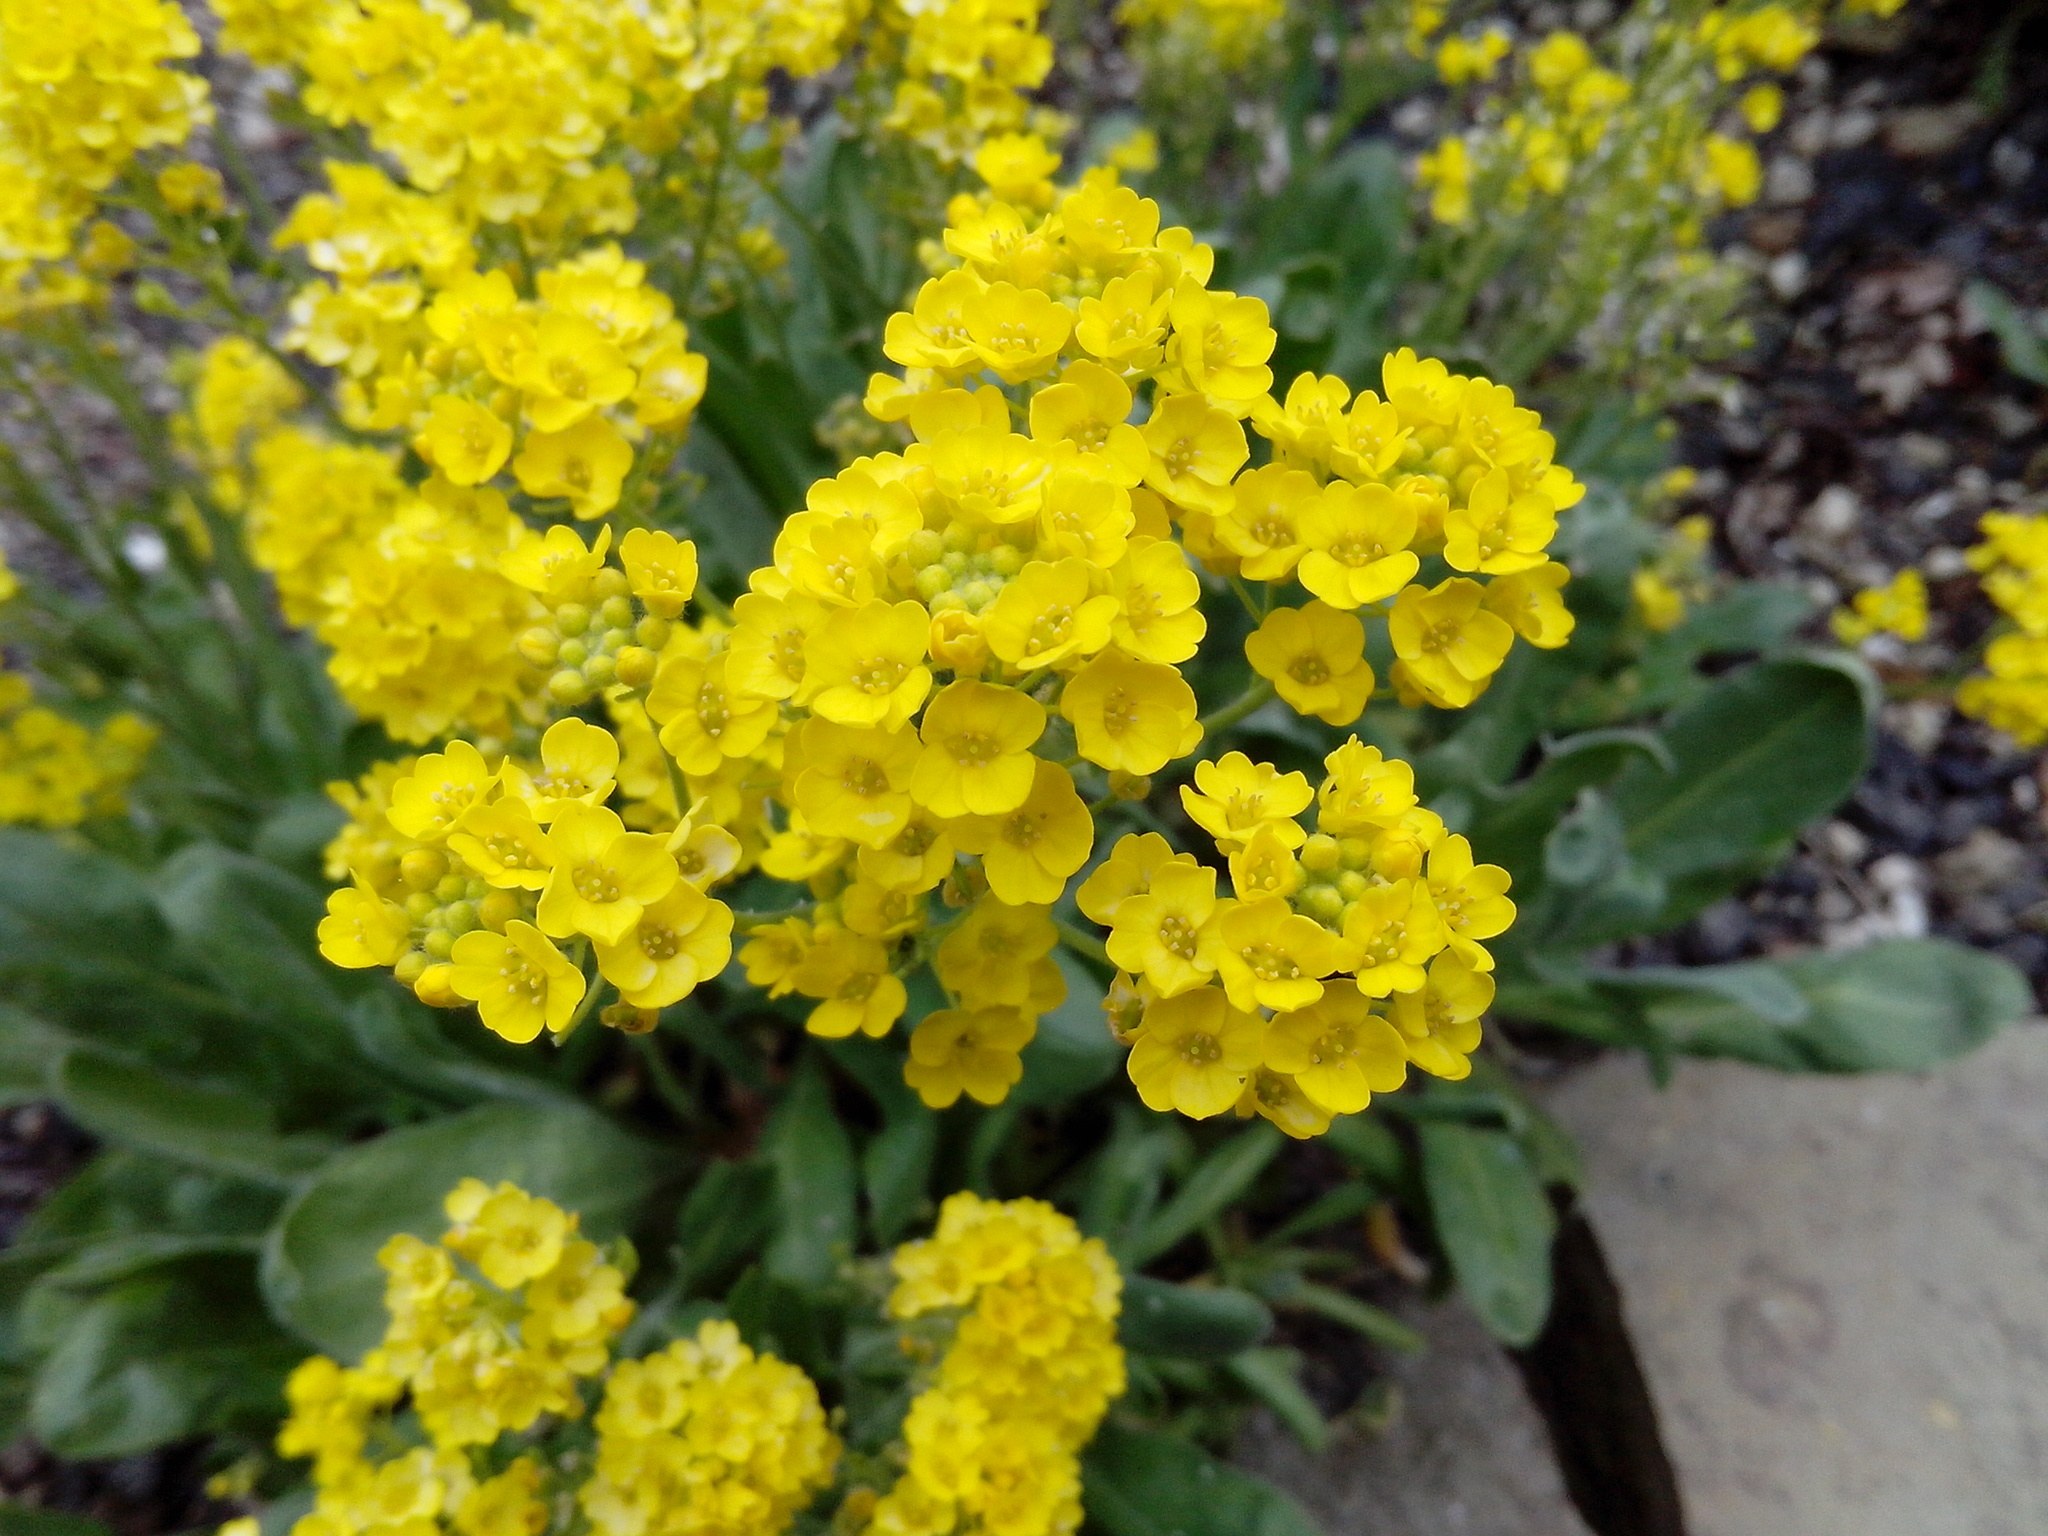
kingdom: Plantae
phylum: Tracheophyta
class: Magnoliopsida
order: Brassicales
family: Brassicaceae
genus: Aurinia
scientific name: Aurinia saxatilis
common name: Golden-tuft alyssum
